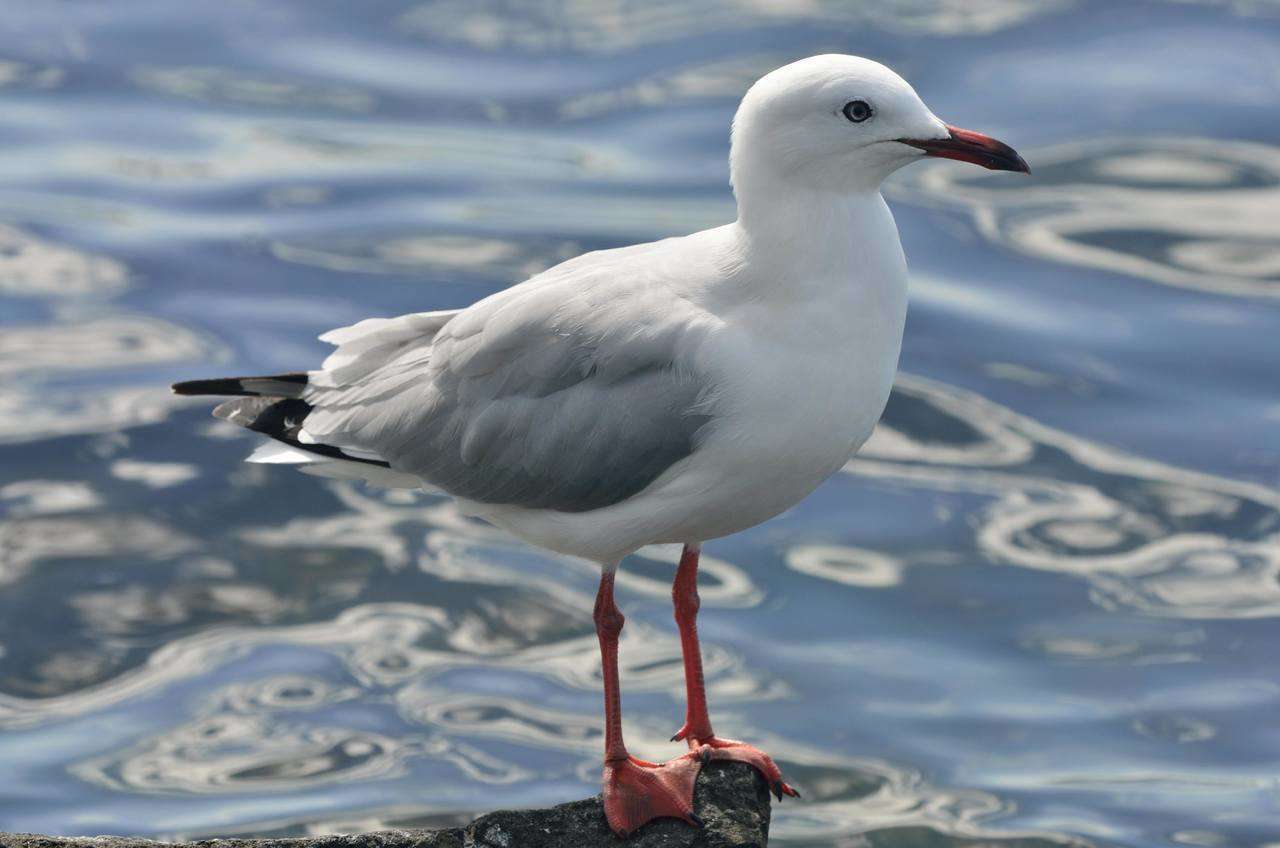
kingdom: Animalia
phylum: Chordata
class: Aves
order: Charadriiformes
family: Laridae
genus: Chroicocephalus
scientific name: Chroicocephalus novaehollandiae
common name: Silver gull
